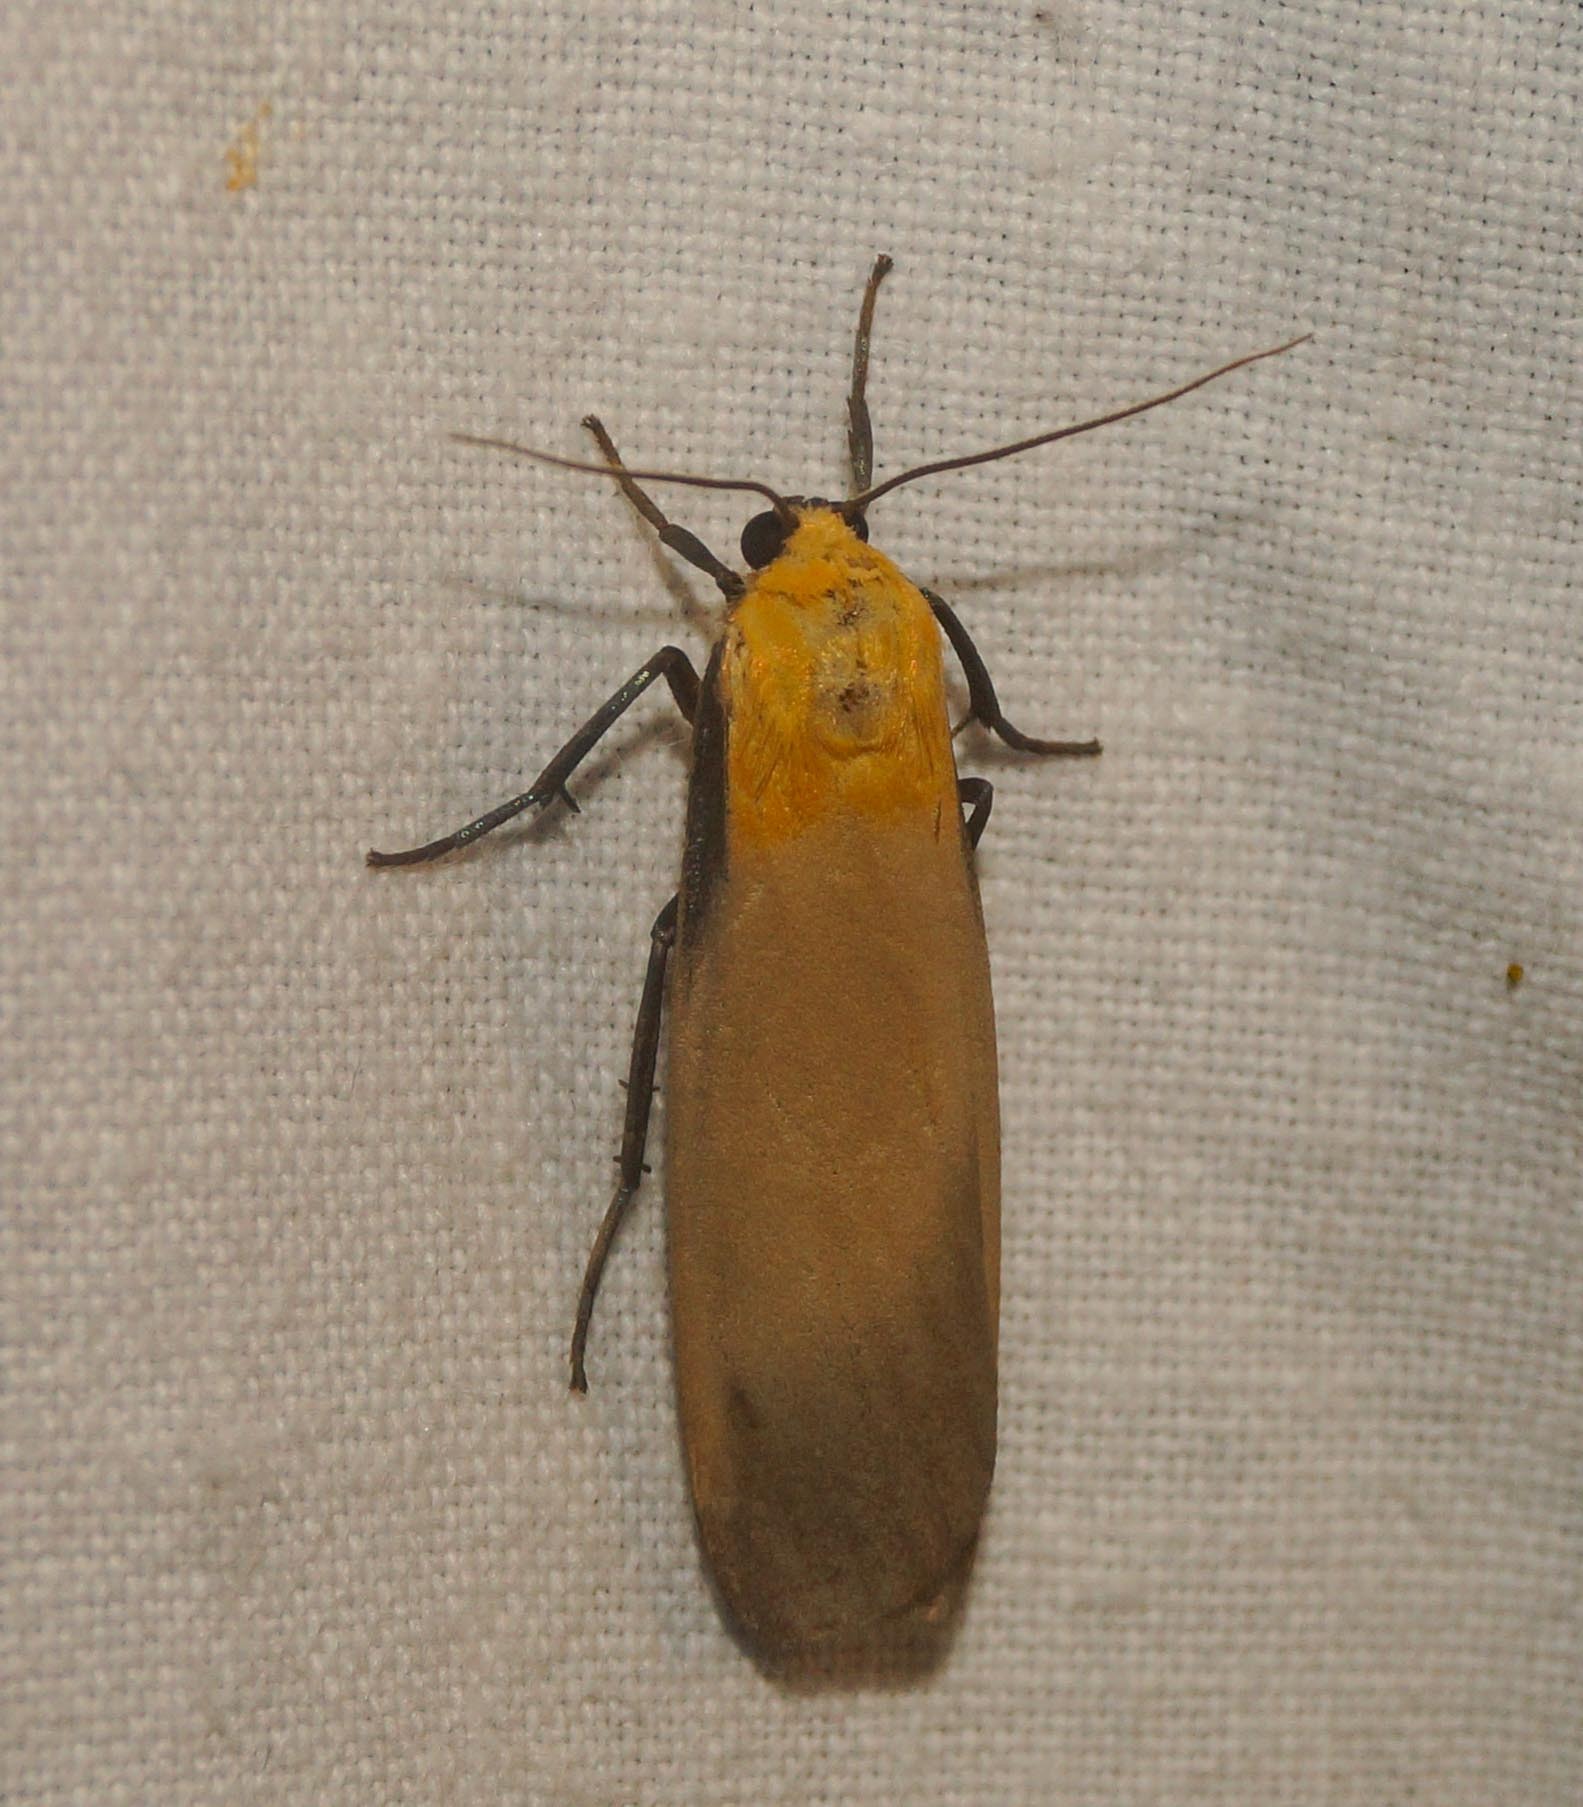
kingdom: Animalia
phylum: Arthropoda
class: Insecta
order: Lepidoptera
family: Erebidae
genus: Lithosia
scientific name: Lithosia quadra
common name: Four-spotted footman
